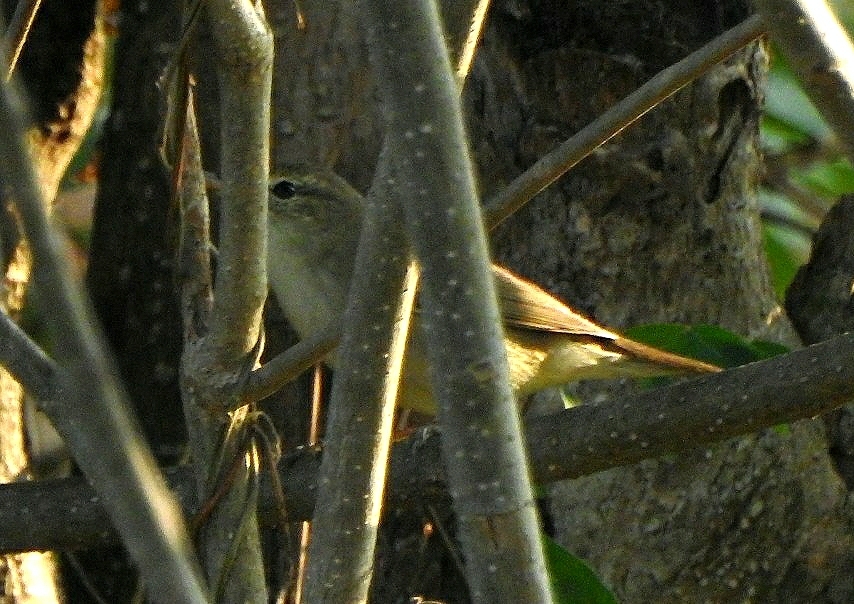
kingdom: Animalia
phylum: Chordata
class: Aves
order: Passeriformes
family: Acrocephalidae
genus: Acrocephalus
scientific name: Acrocephalus dumetorum
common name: Blyth's reed warbler
